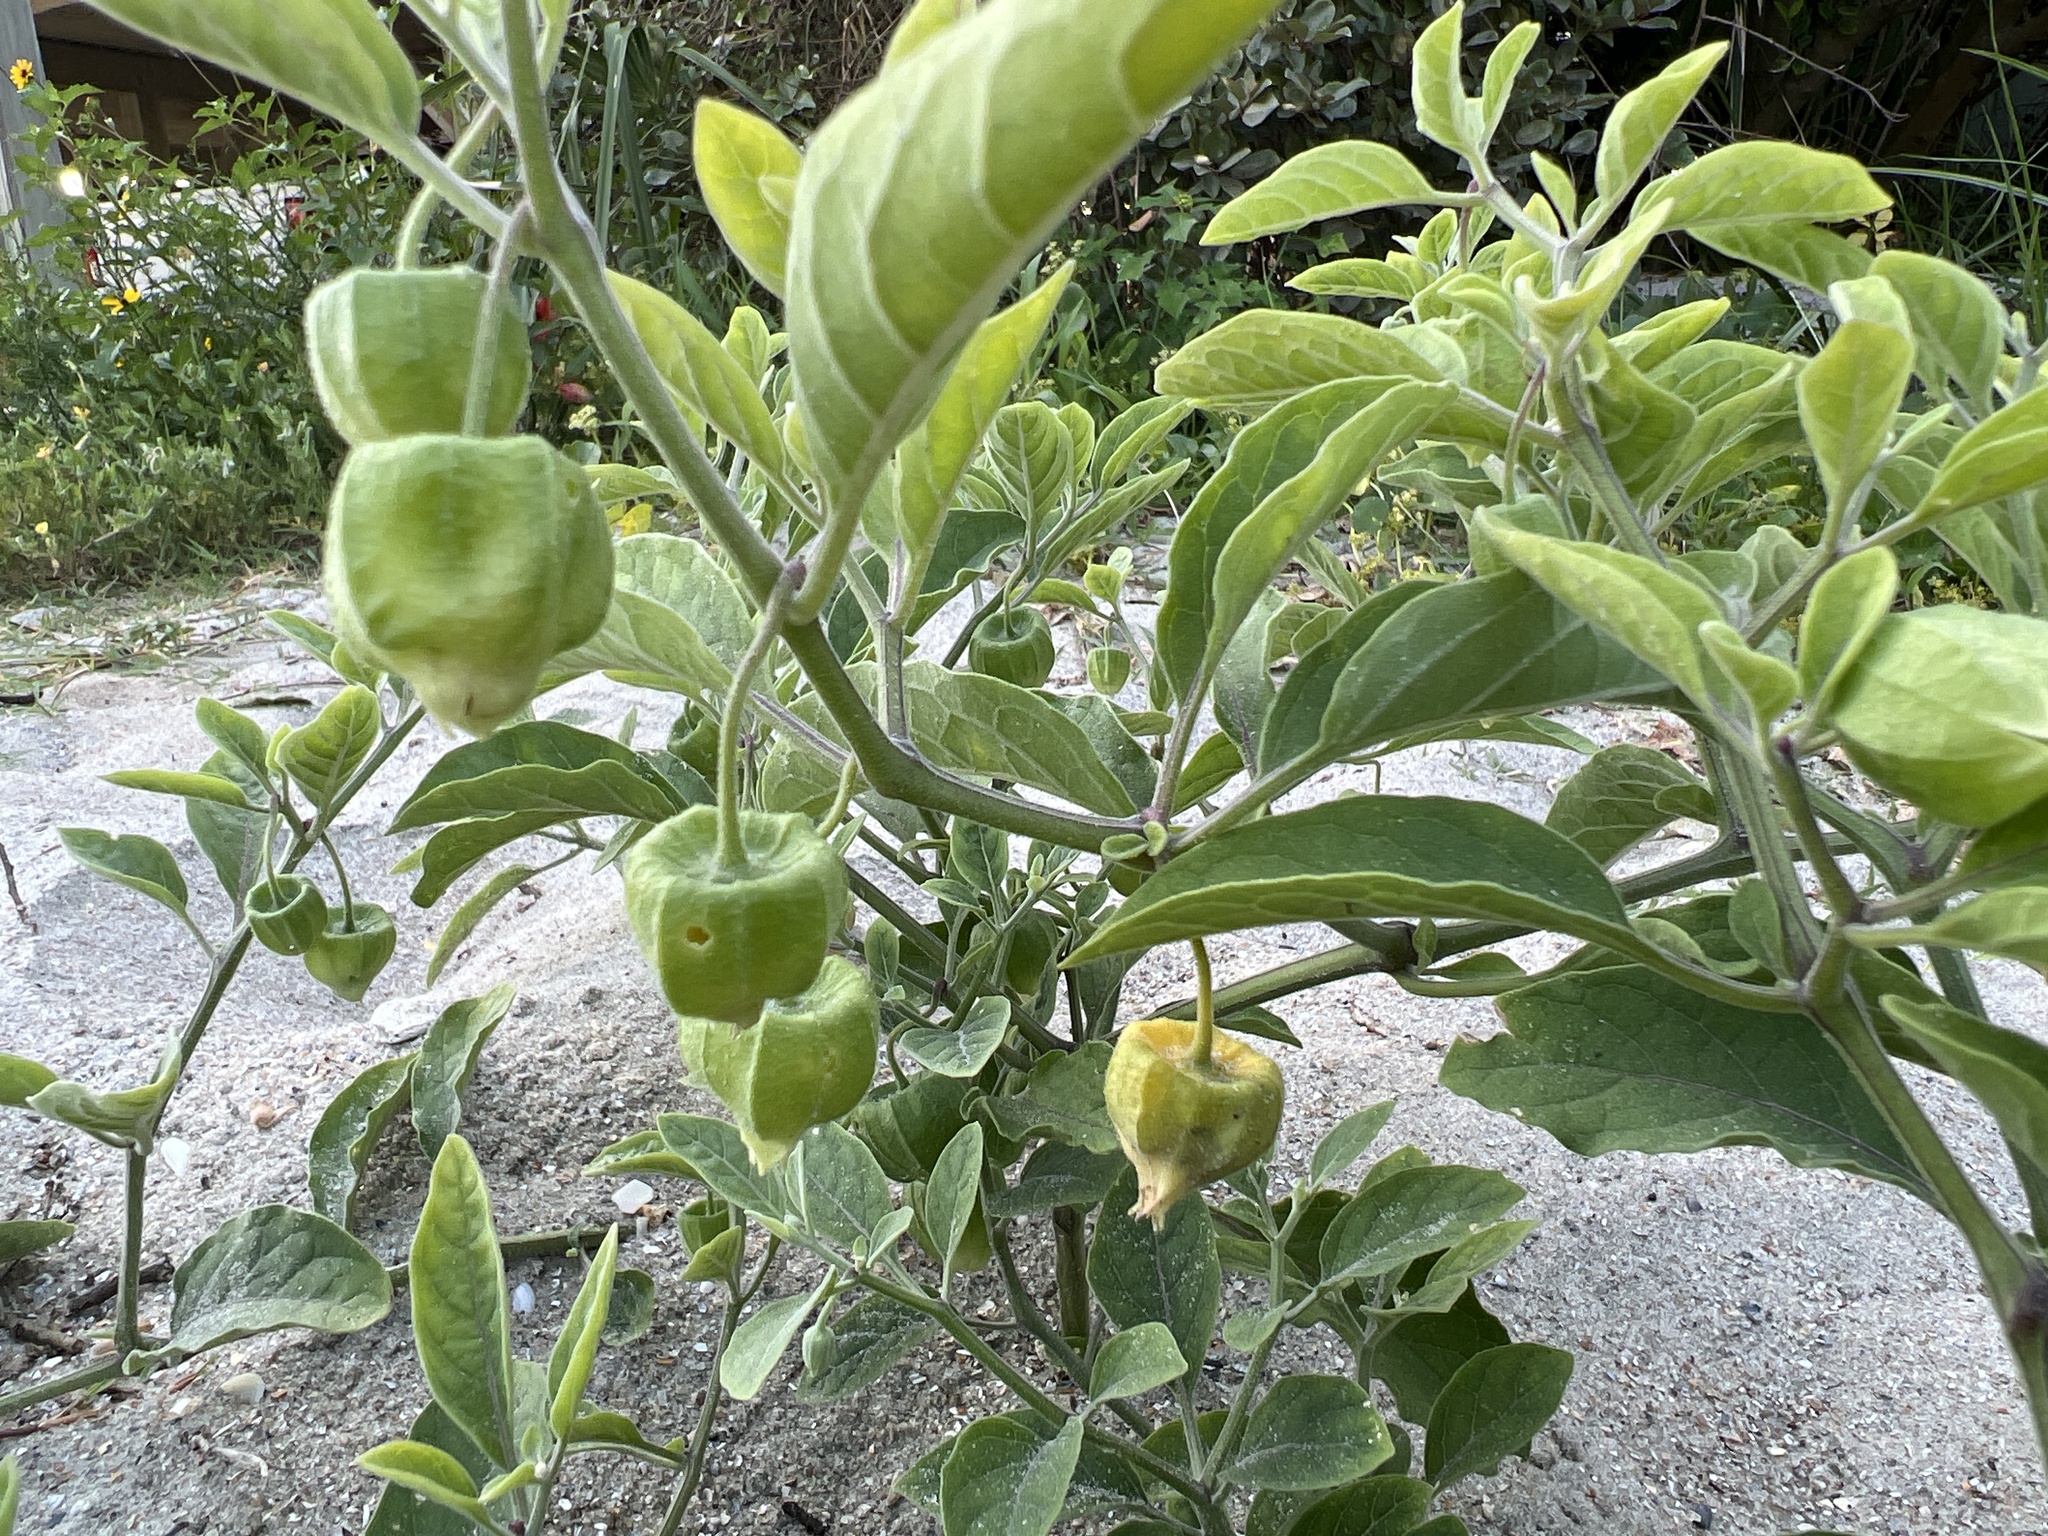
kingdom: Plantae
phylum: Tracheophyta
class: Magnoliopsida
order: Solanales
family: Solanaceae
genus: Physalis
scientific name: Physalis walteri
